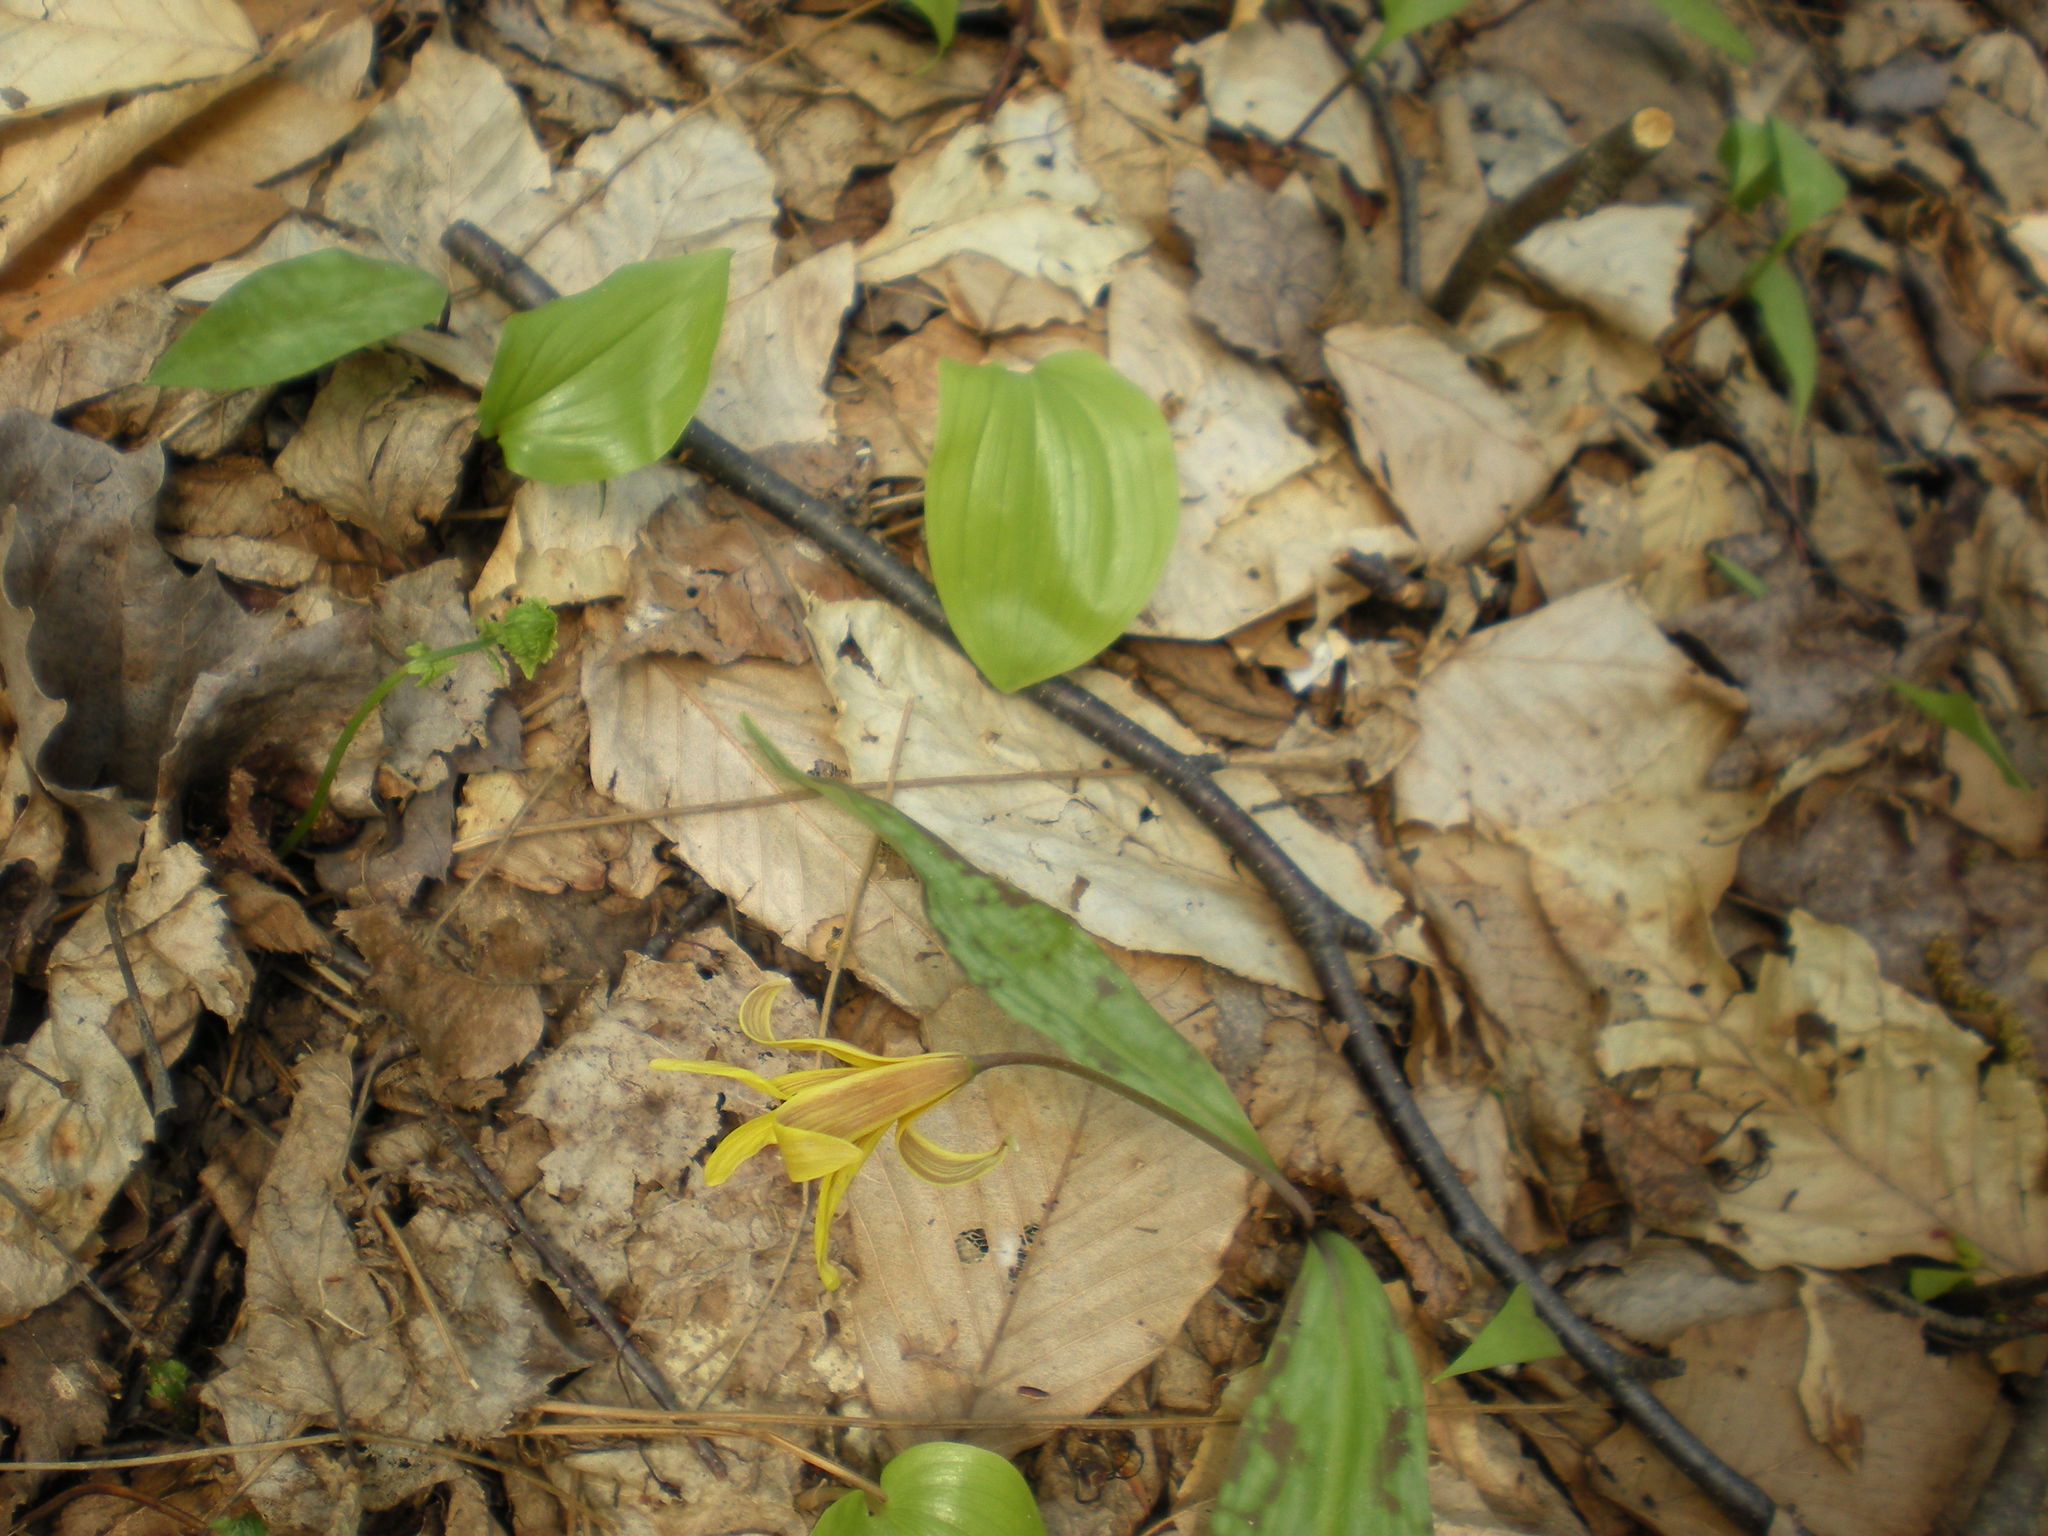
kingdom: Plantae
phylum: Tracheophyta
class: Liliopsida
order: Asparagales
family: Asparagaceae
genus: Maianthemum
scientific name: Maianthemum canadense
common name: False lily-of-the-valley
